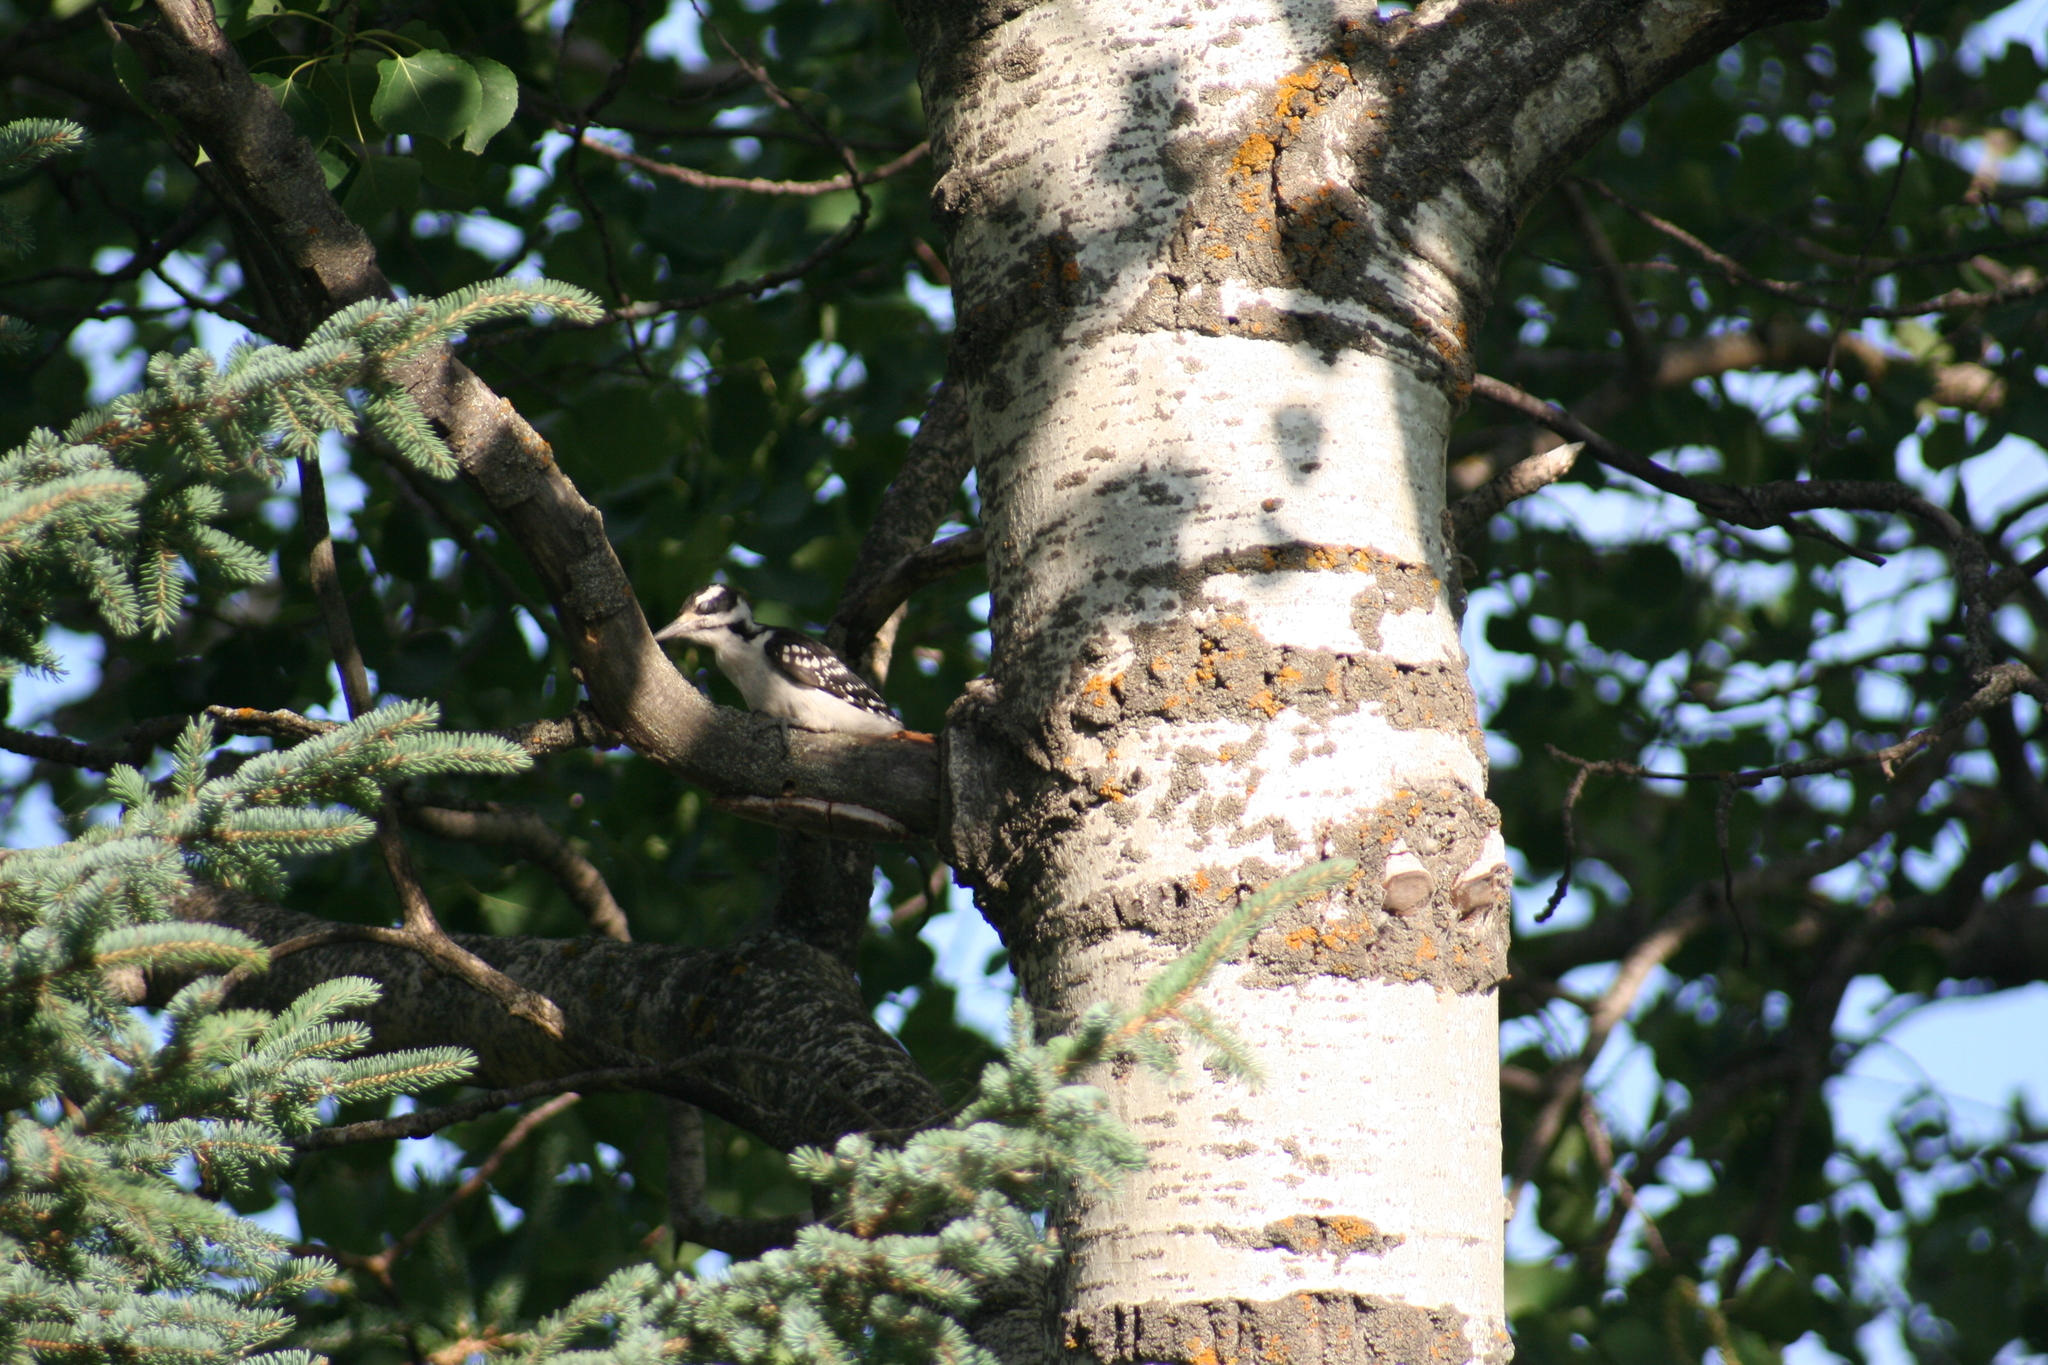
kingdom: Animalia
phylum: Chordata
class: Aves
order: Piciformes
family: Picidae
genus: Leuconotopicus
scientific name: Leuconotopicus villosus
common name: Hairy woodpecker
